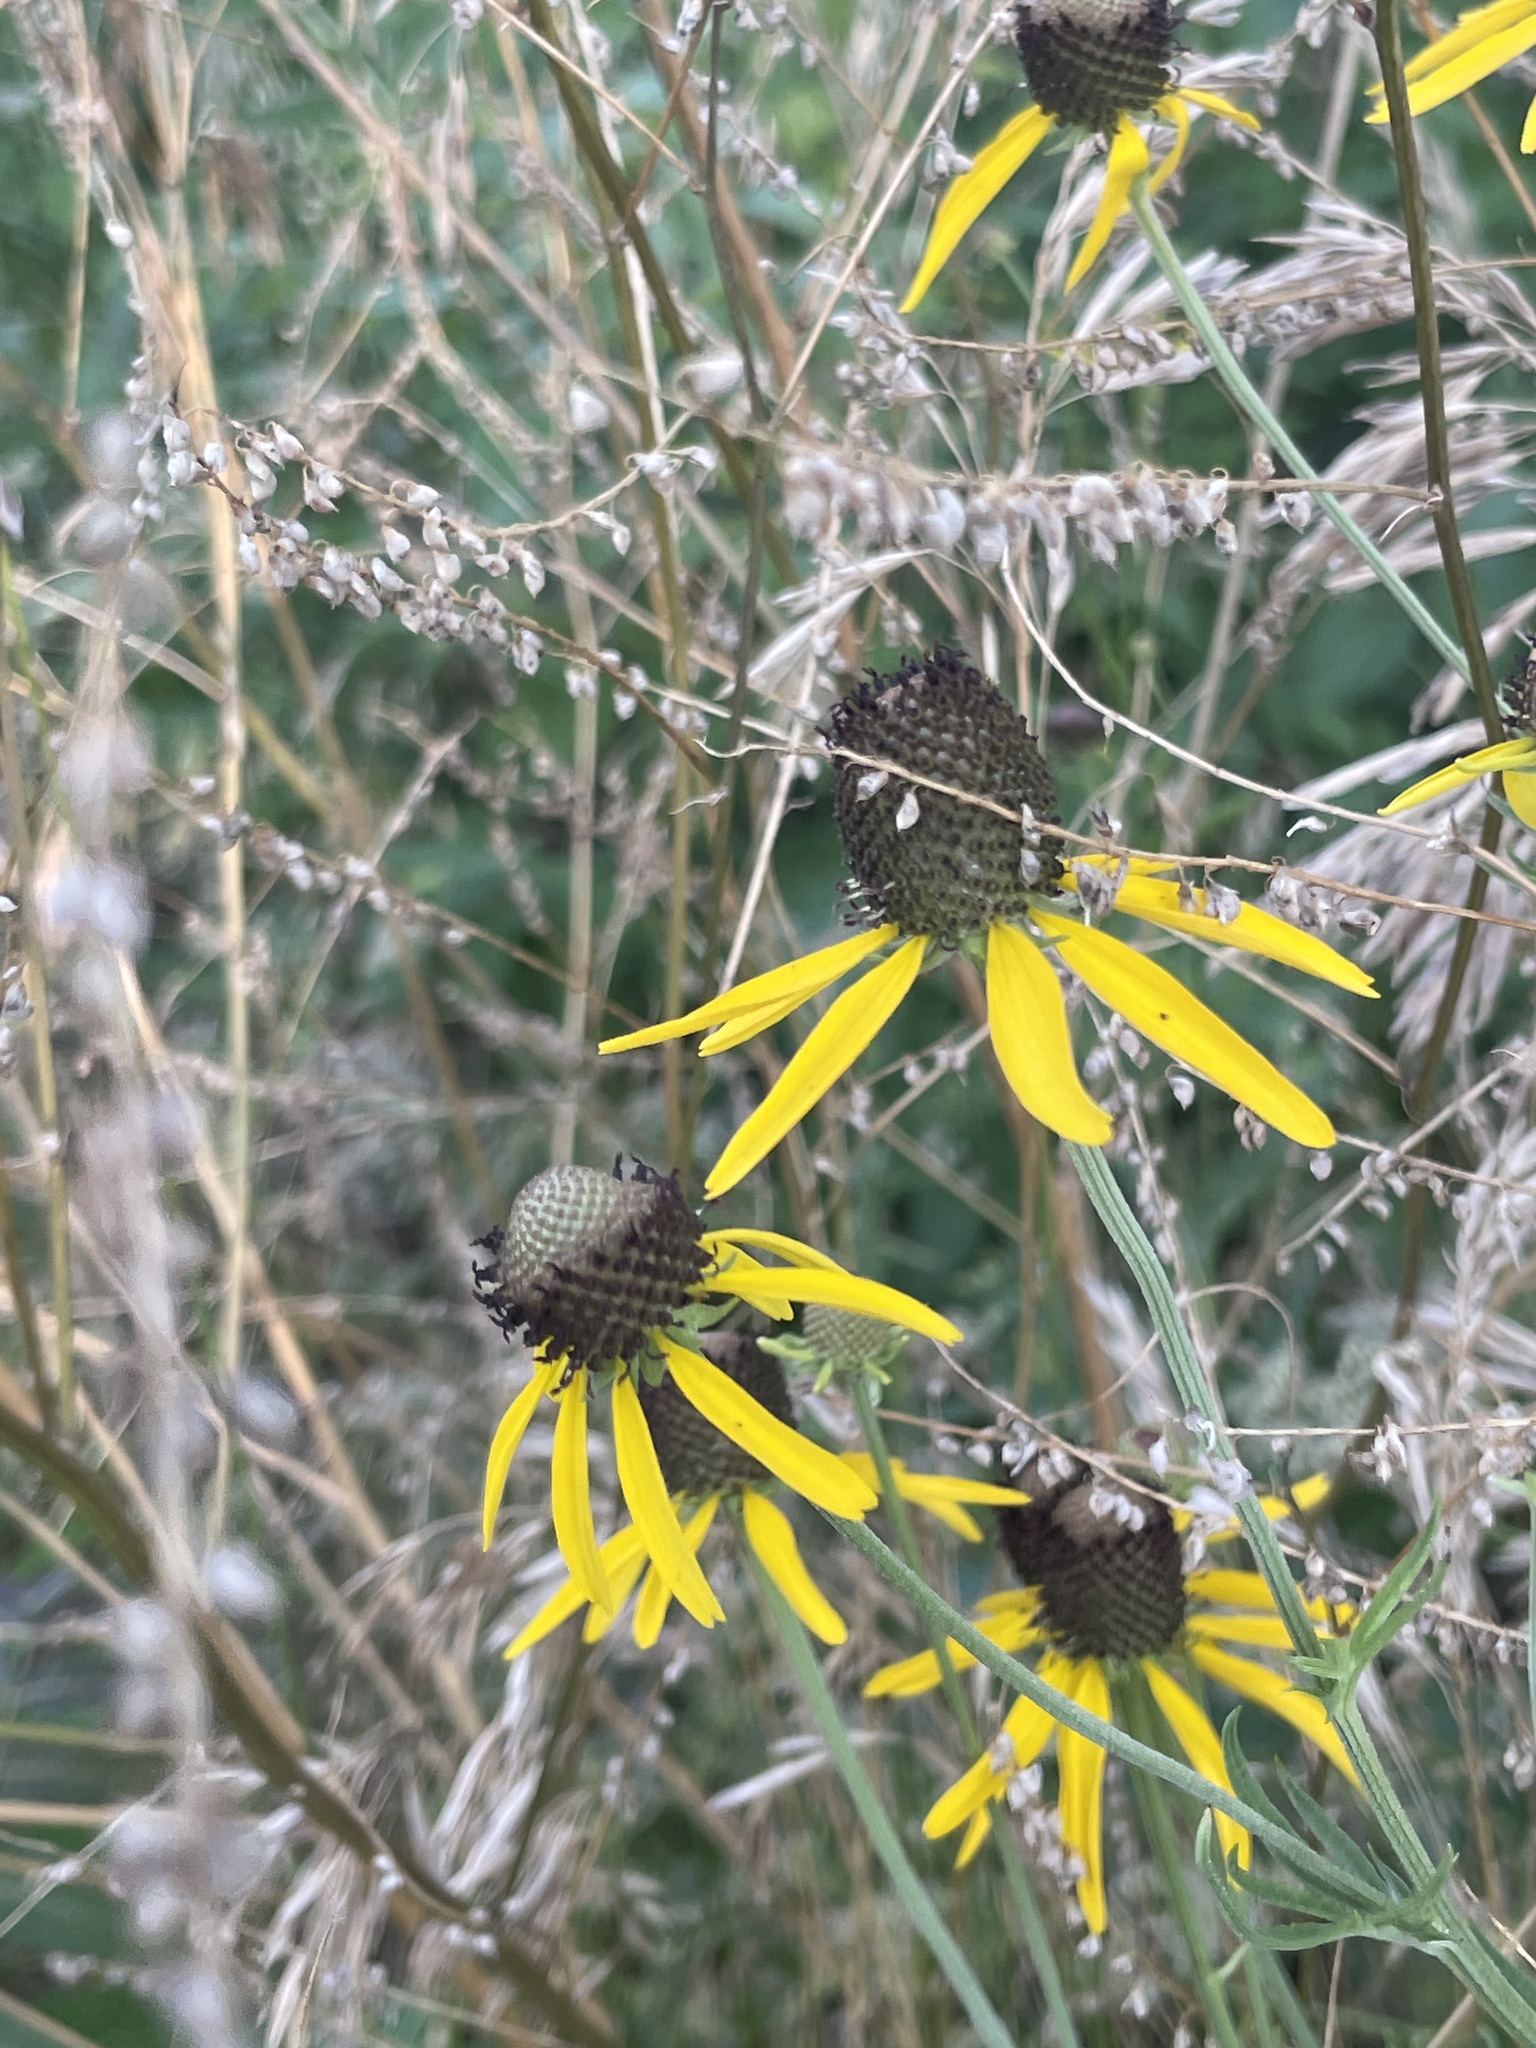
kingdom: Plantae
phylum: Tracheophyta
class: Magnoliopsida
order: Asterales
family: Asteraceae
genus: Ratibida
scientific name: Ratibida pinnata
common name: Drooping prairie-coneflower
